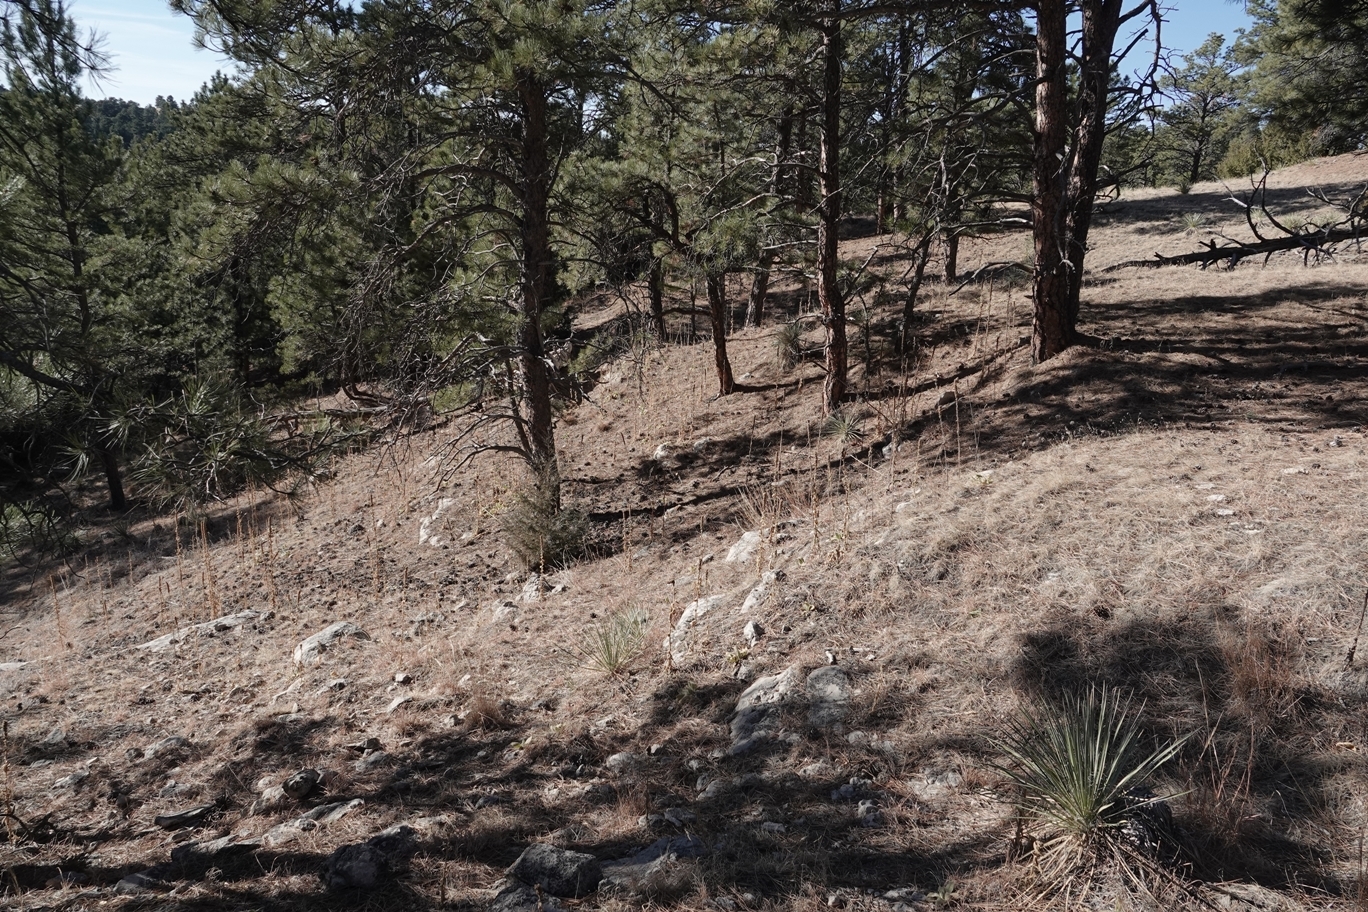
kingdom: Plantae
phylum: Tracheophyta
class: Magnoliopsida
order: Lamiales
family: Scrophulariaceae
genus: Verbascum
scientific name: Verbascum thapsus
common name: Common mullein
